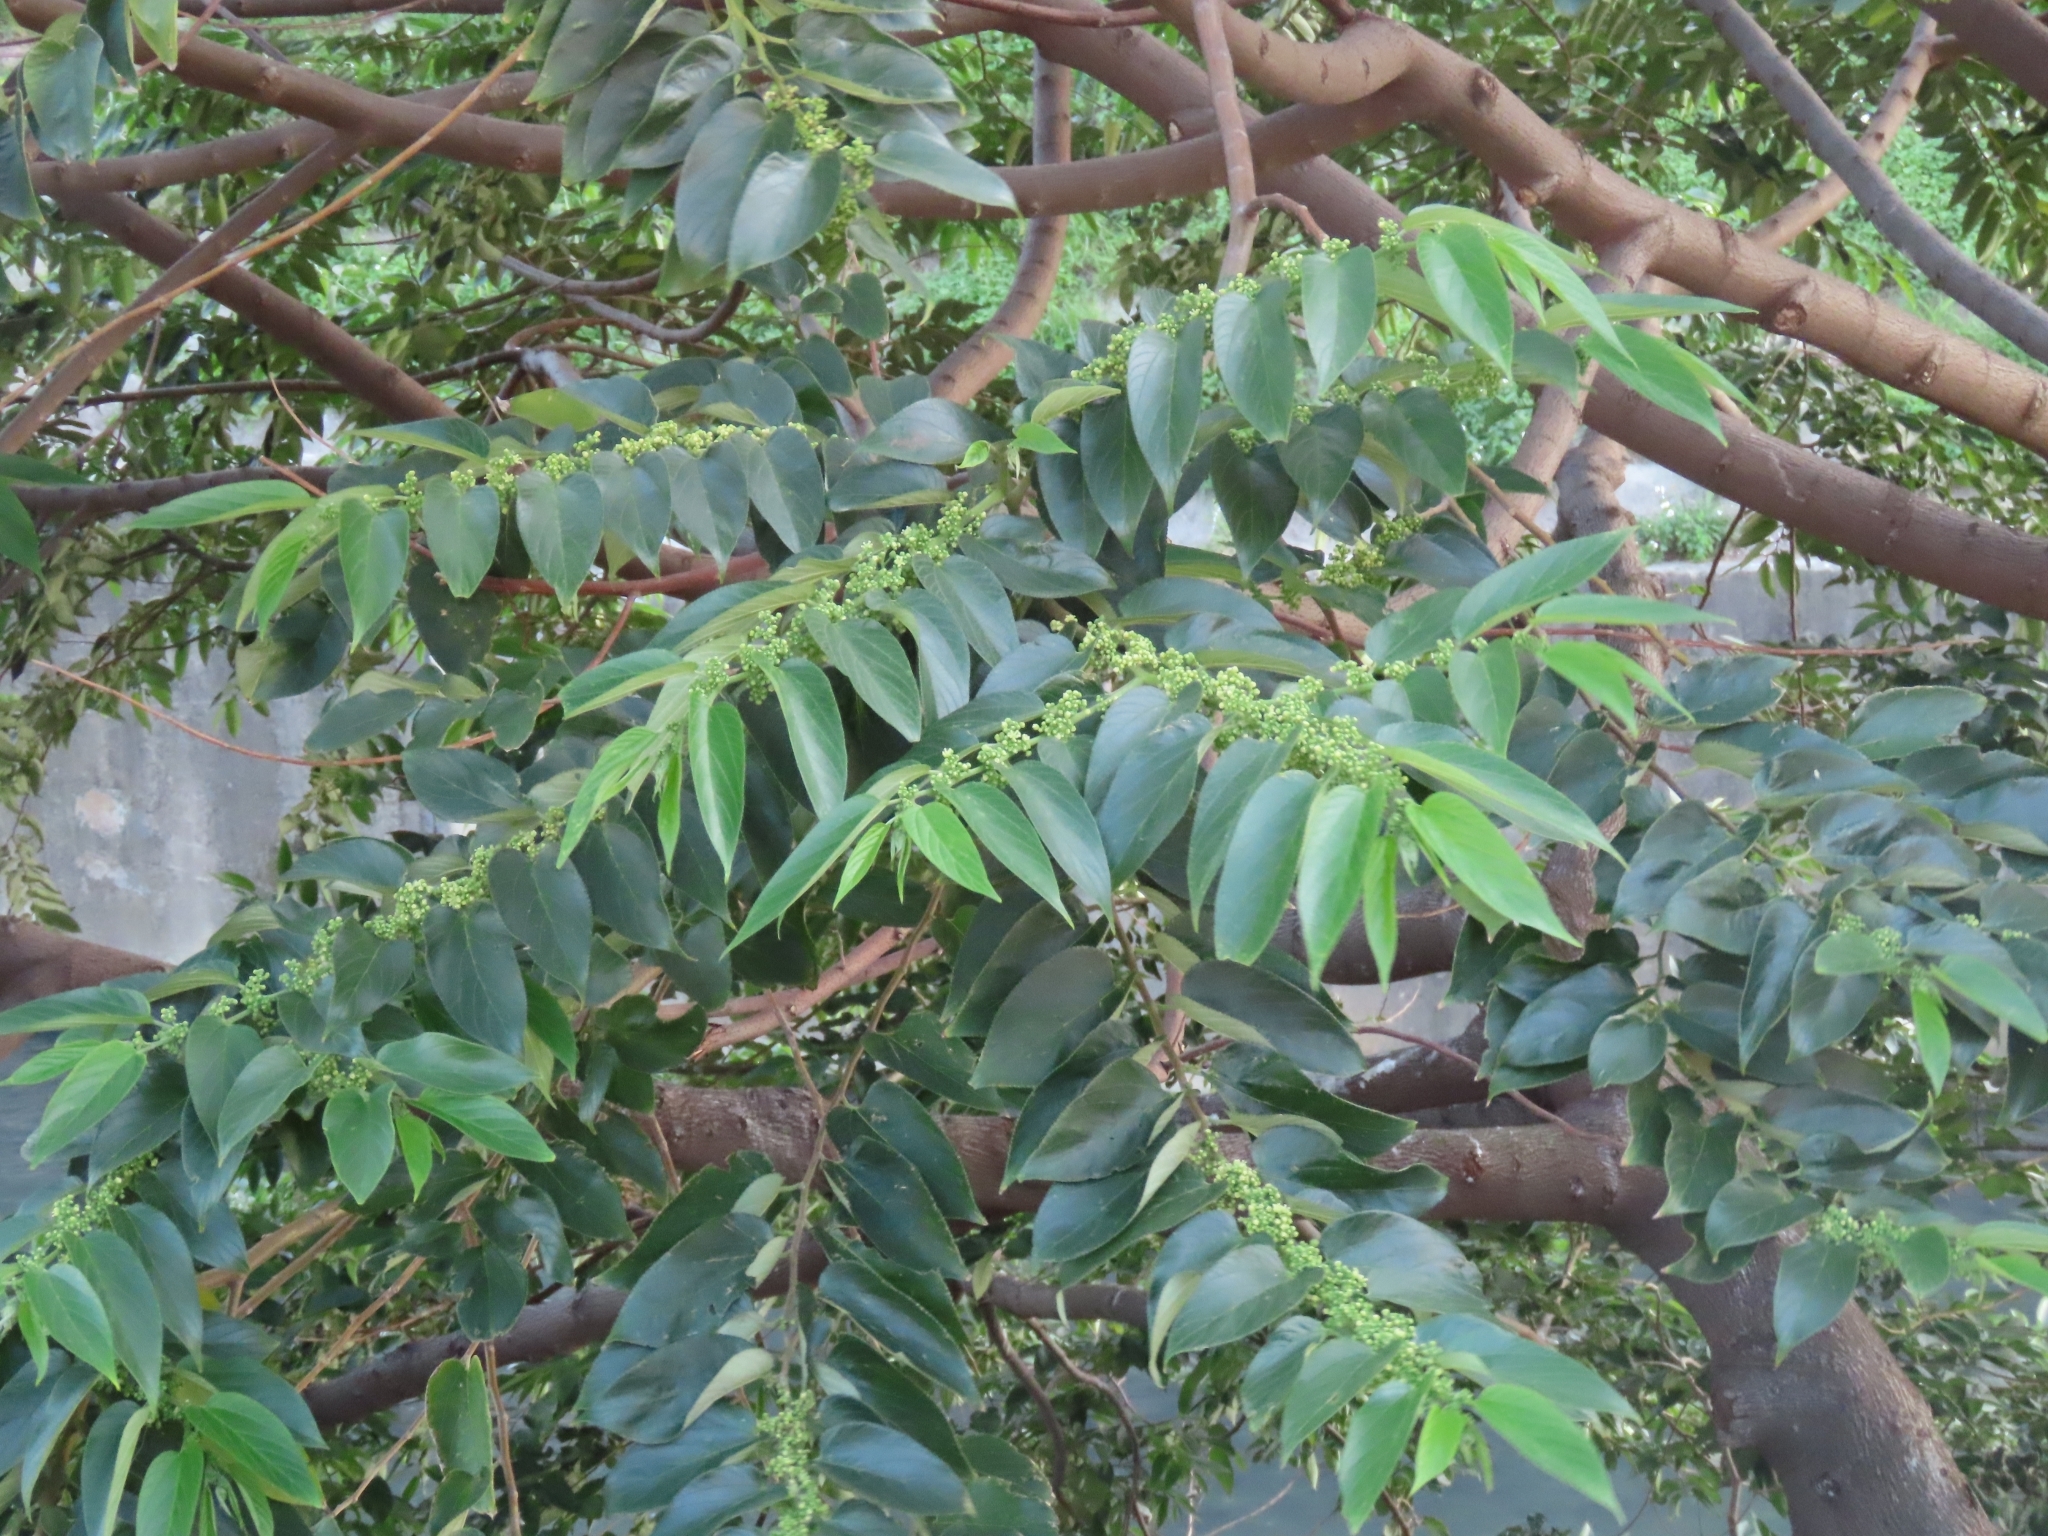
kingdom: Plantae
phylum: Tracheophyta
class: Magnoliopsida
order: Rosales
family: Cannabaceae
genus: Trema
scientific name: Trema orientale
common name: Indian charcoal tree
